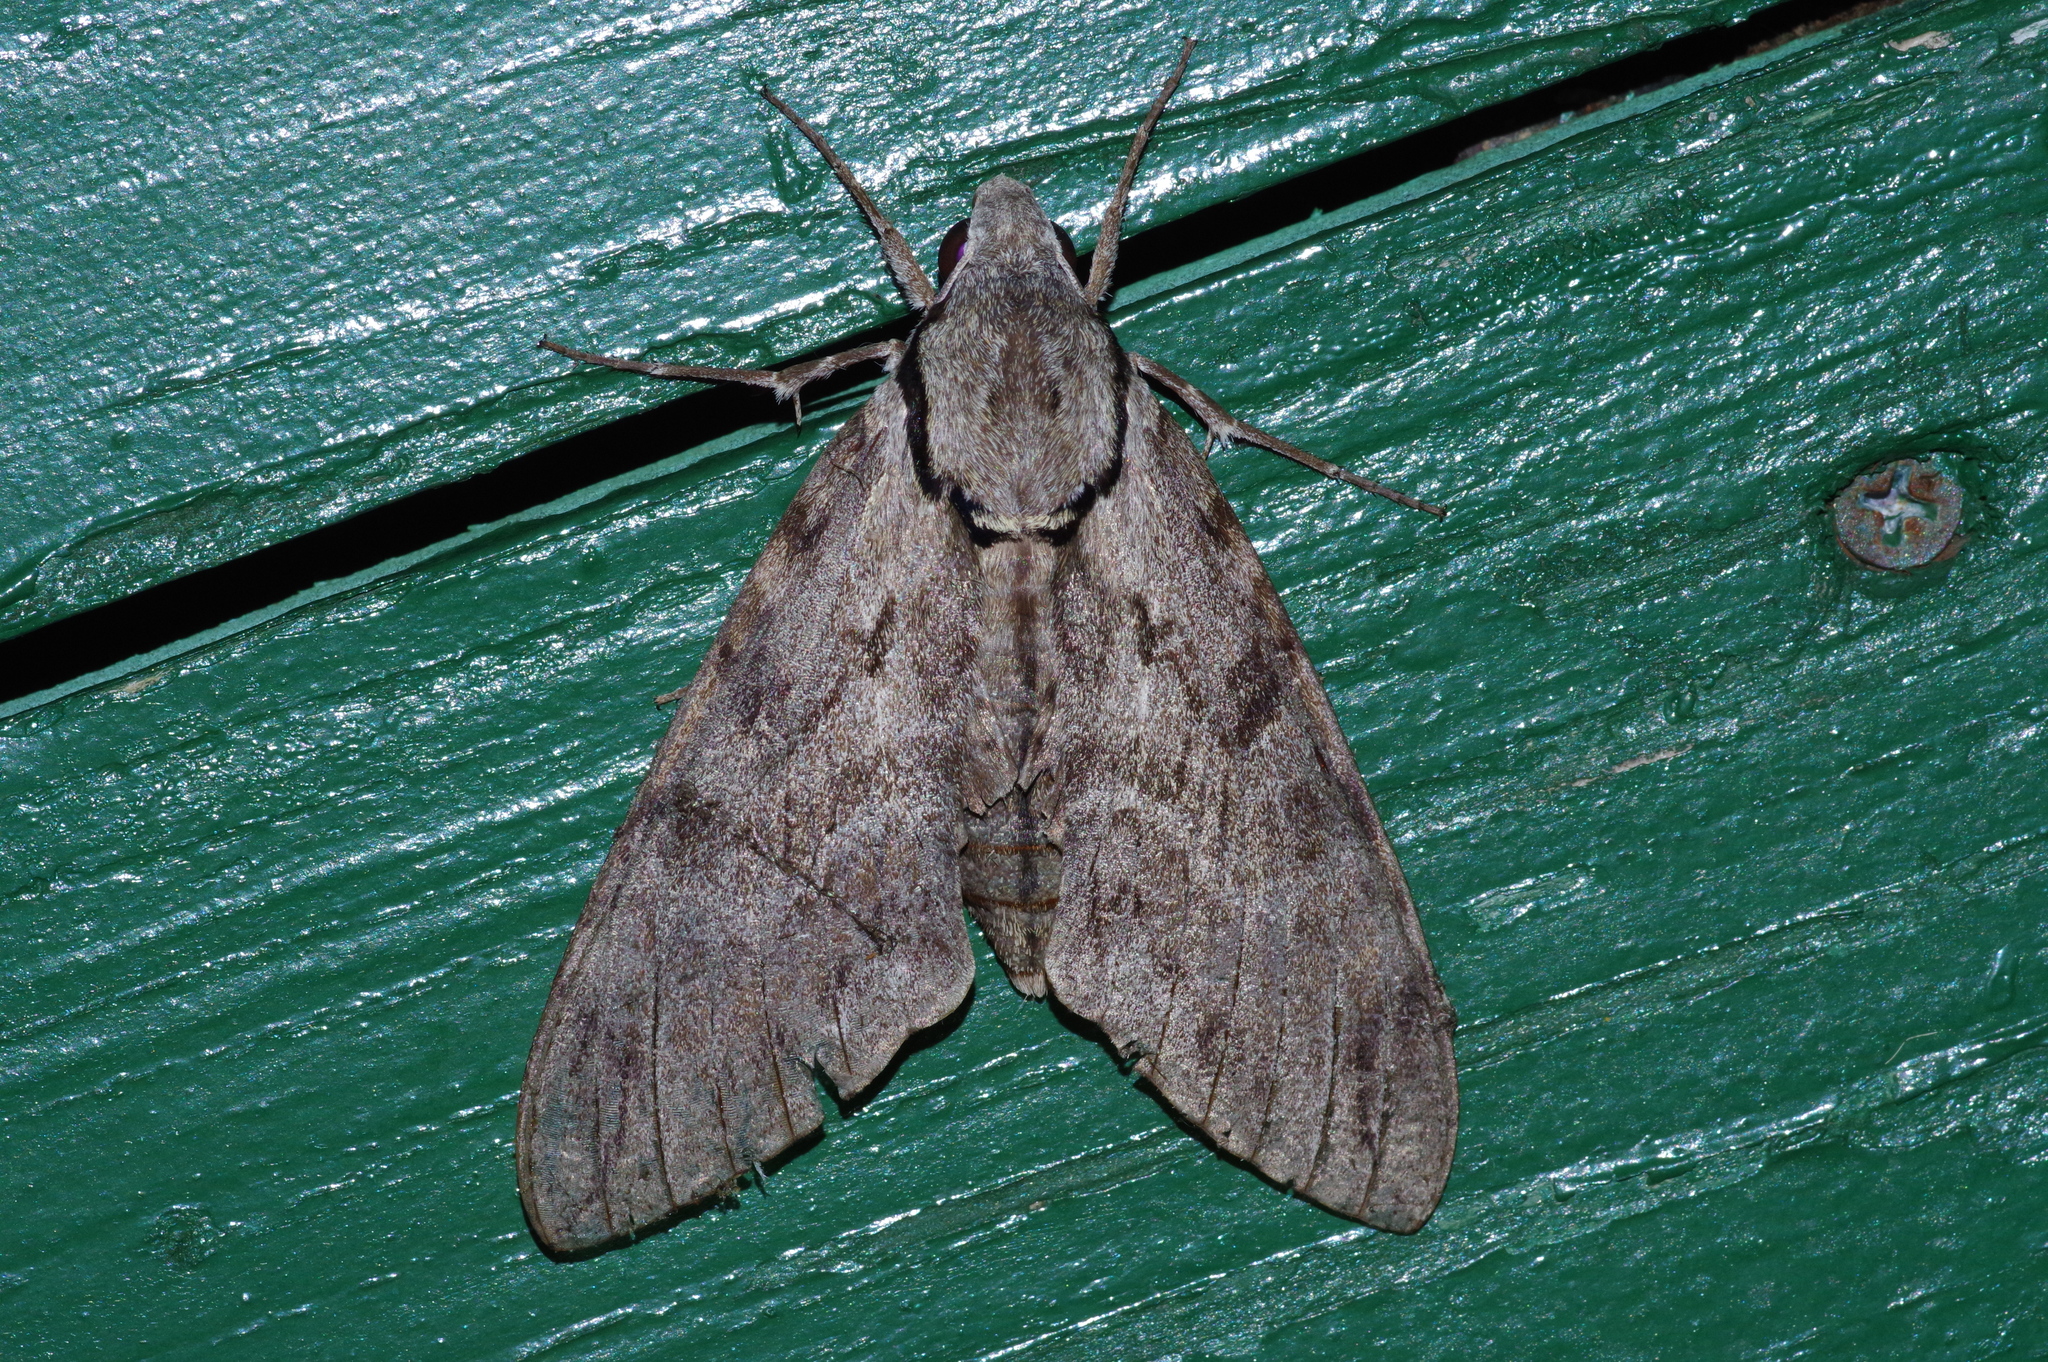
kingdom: Animalia
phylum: Arthropoda
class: Insecta
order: Lepidoptera
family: Sphingidae
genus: Psilogramma
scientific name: Psilogramma increta
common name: Gray hawk moth
